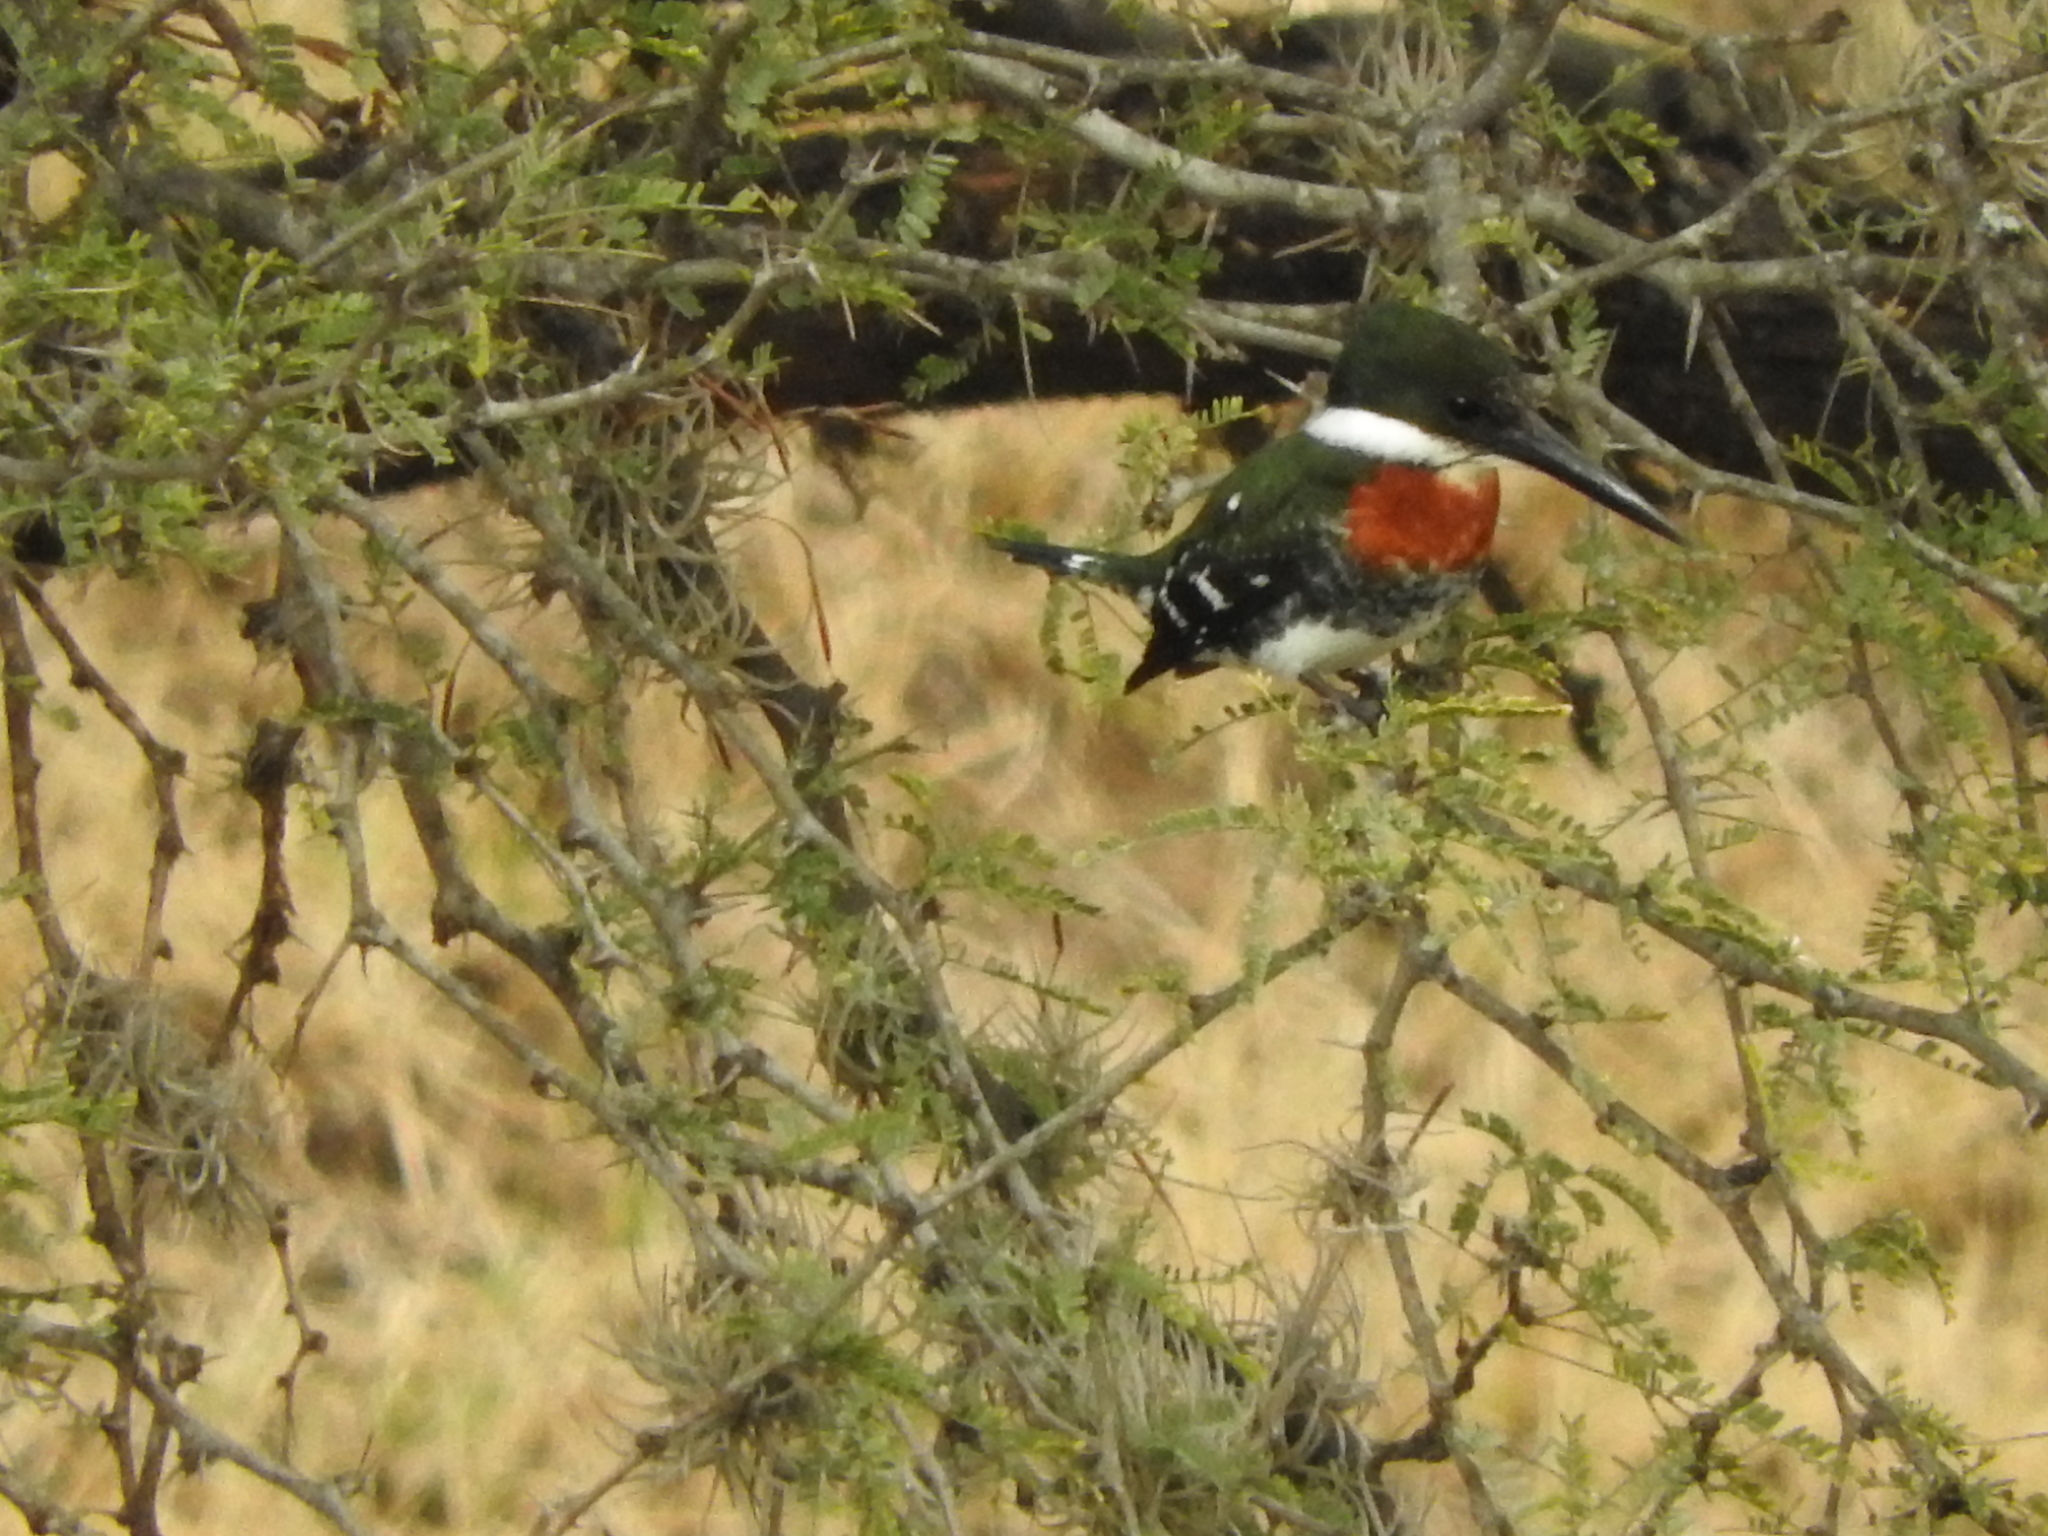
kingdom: Animalia
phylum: Chordata
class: Aves
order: Coraciiformes
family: Alcedinidae
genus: Chloroceryle
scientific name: Chloroceryle americana
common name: Green kingfisher
